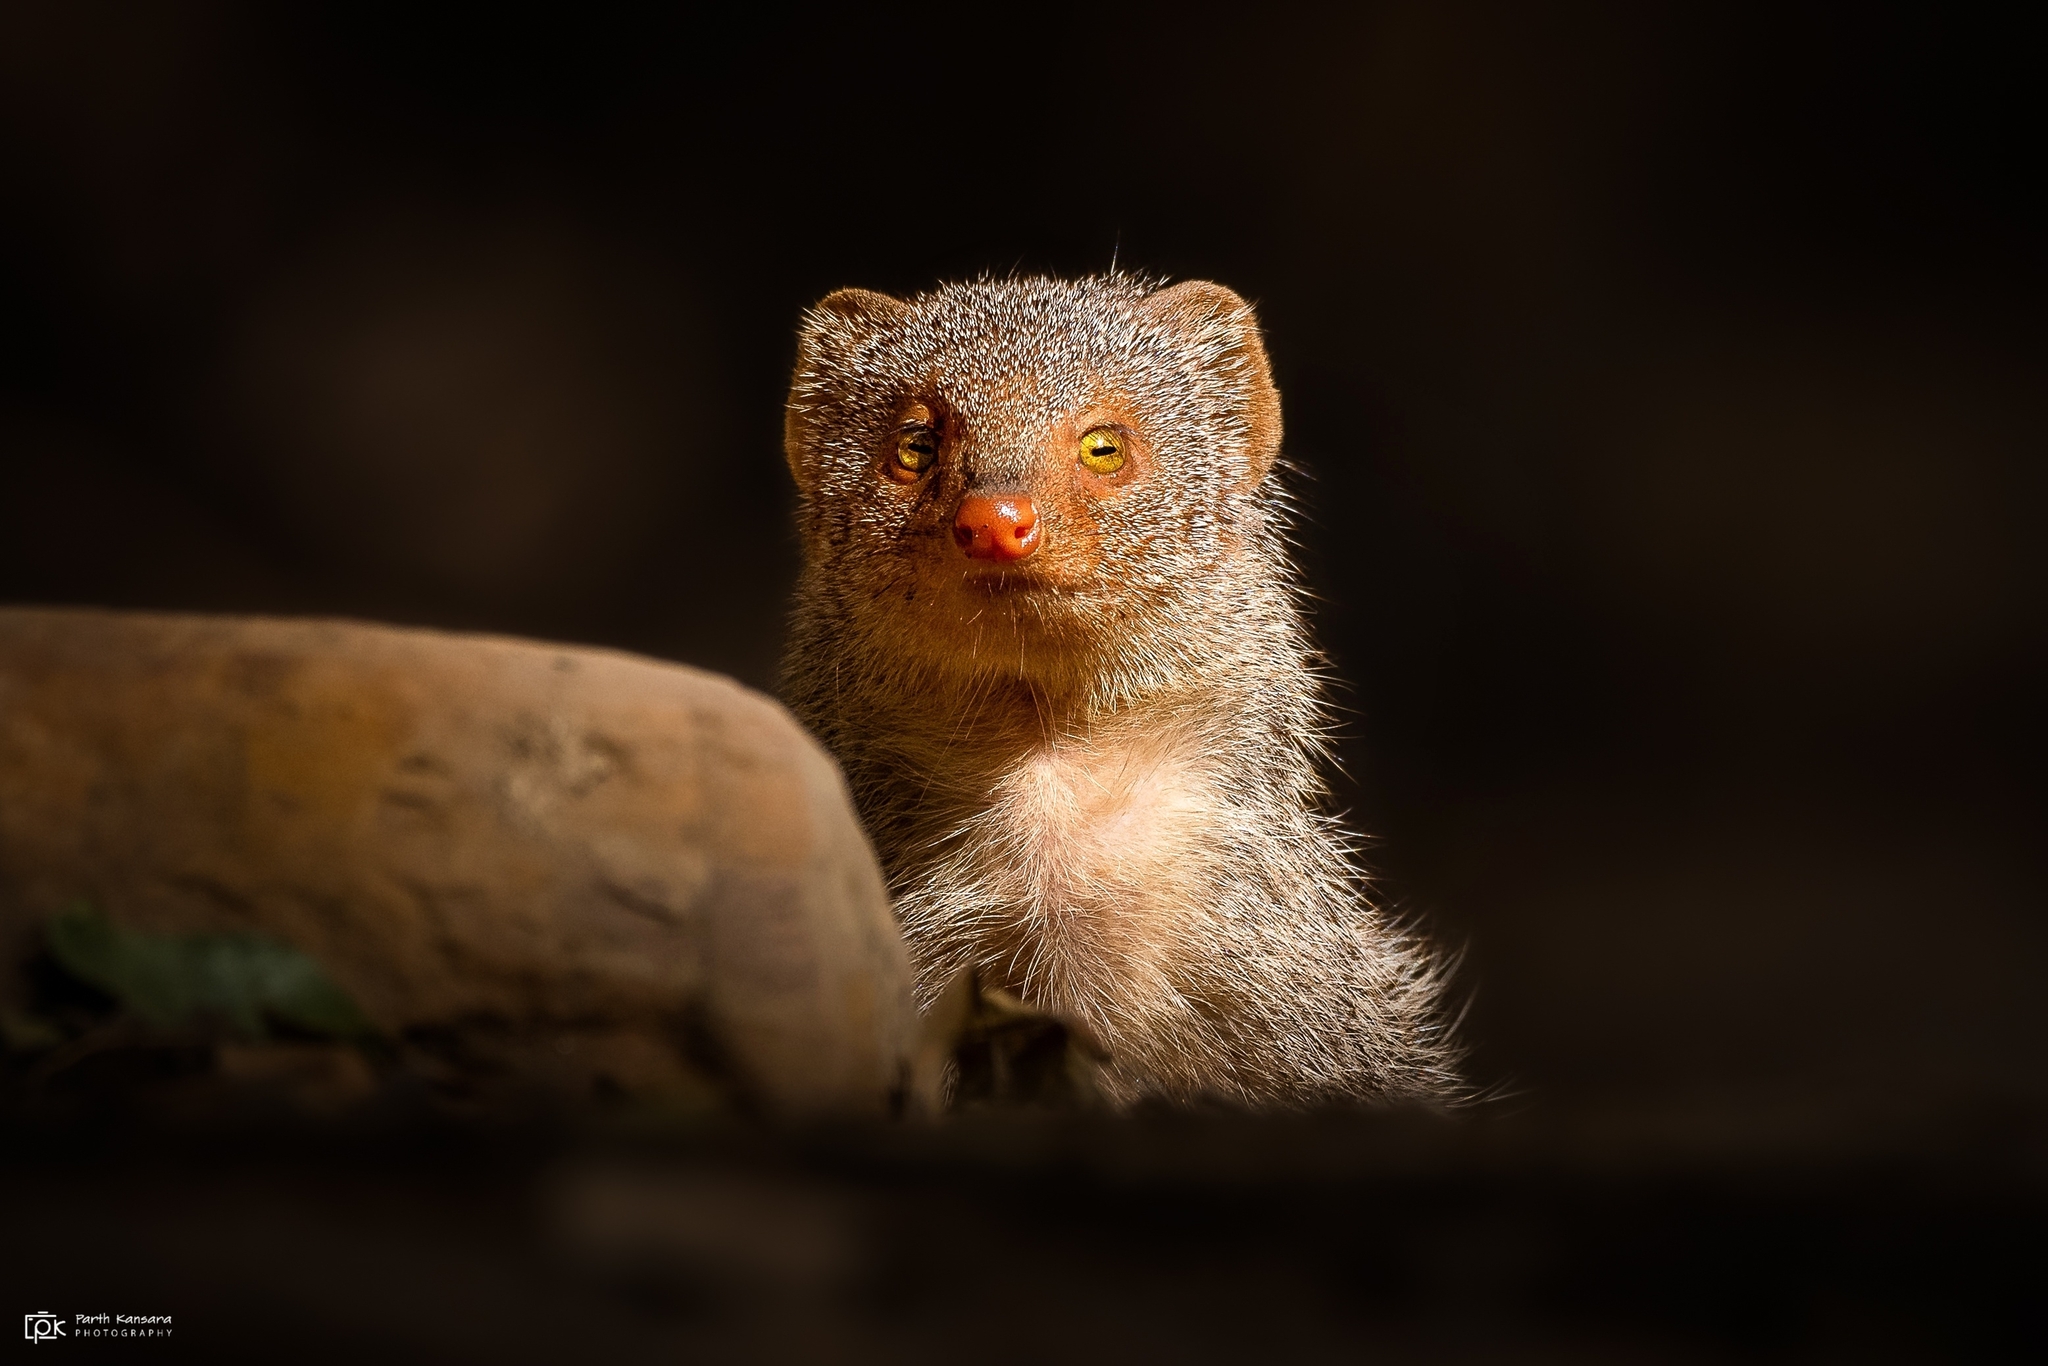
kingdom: Animalia
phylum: Chordata
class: Mammalia
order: Carnivora
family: Herpestidae
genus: Herpestes
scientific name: Herpestes edwardsi
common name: Indian gray mongoose
